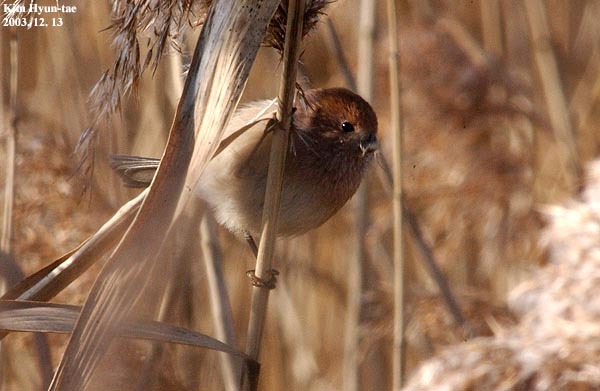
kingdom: Animalia
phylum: Chordata
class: Aves
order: Passeriformes
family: Sylviidae
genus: Sinosuthora
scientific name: Sinosuthora webbiana
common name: Vinous-throated parrotbill
